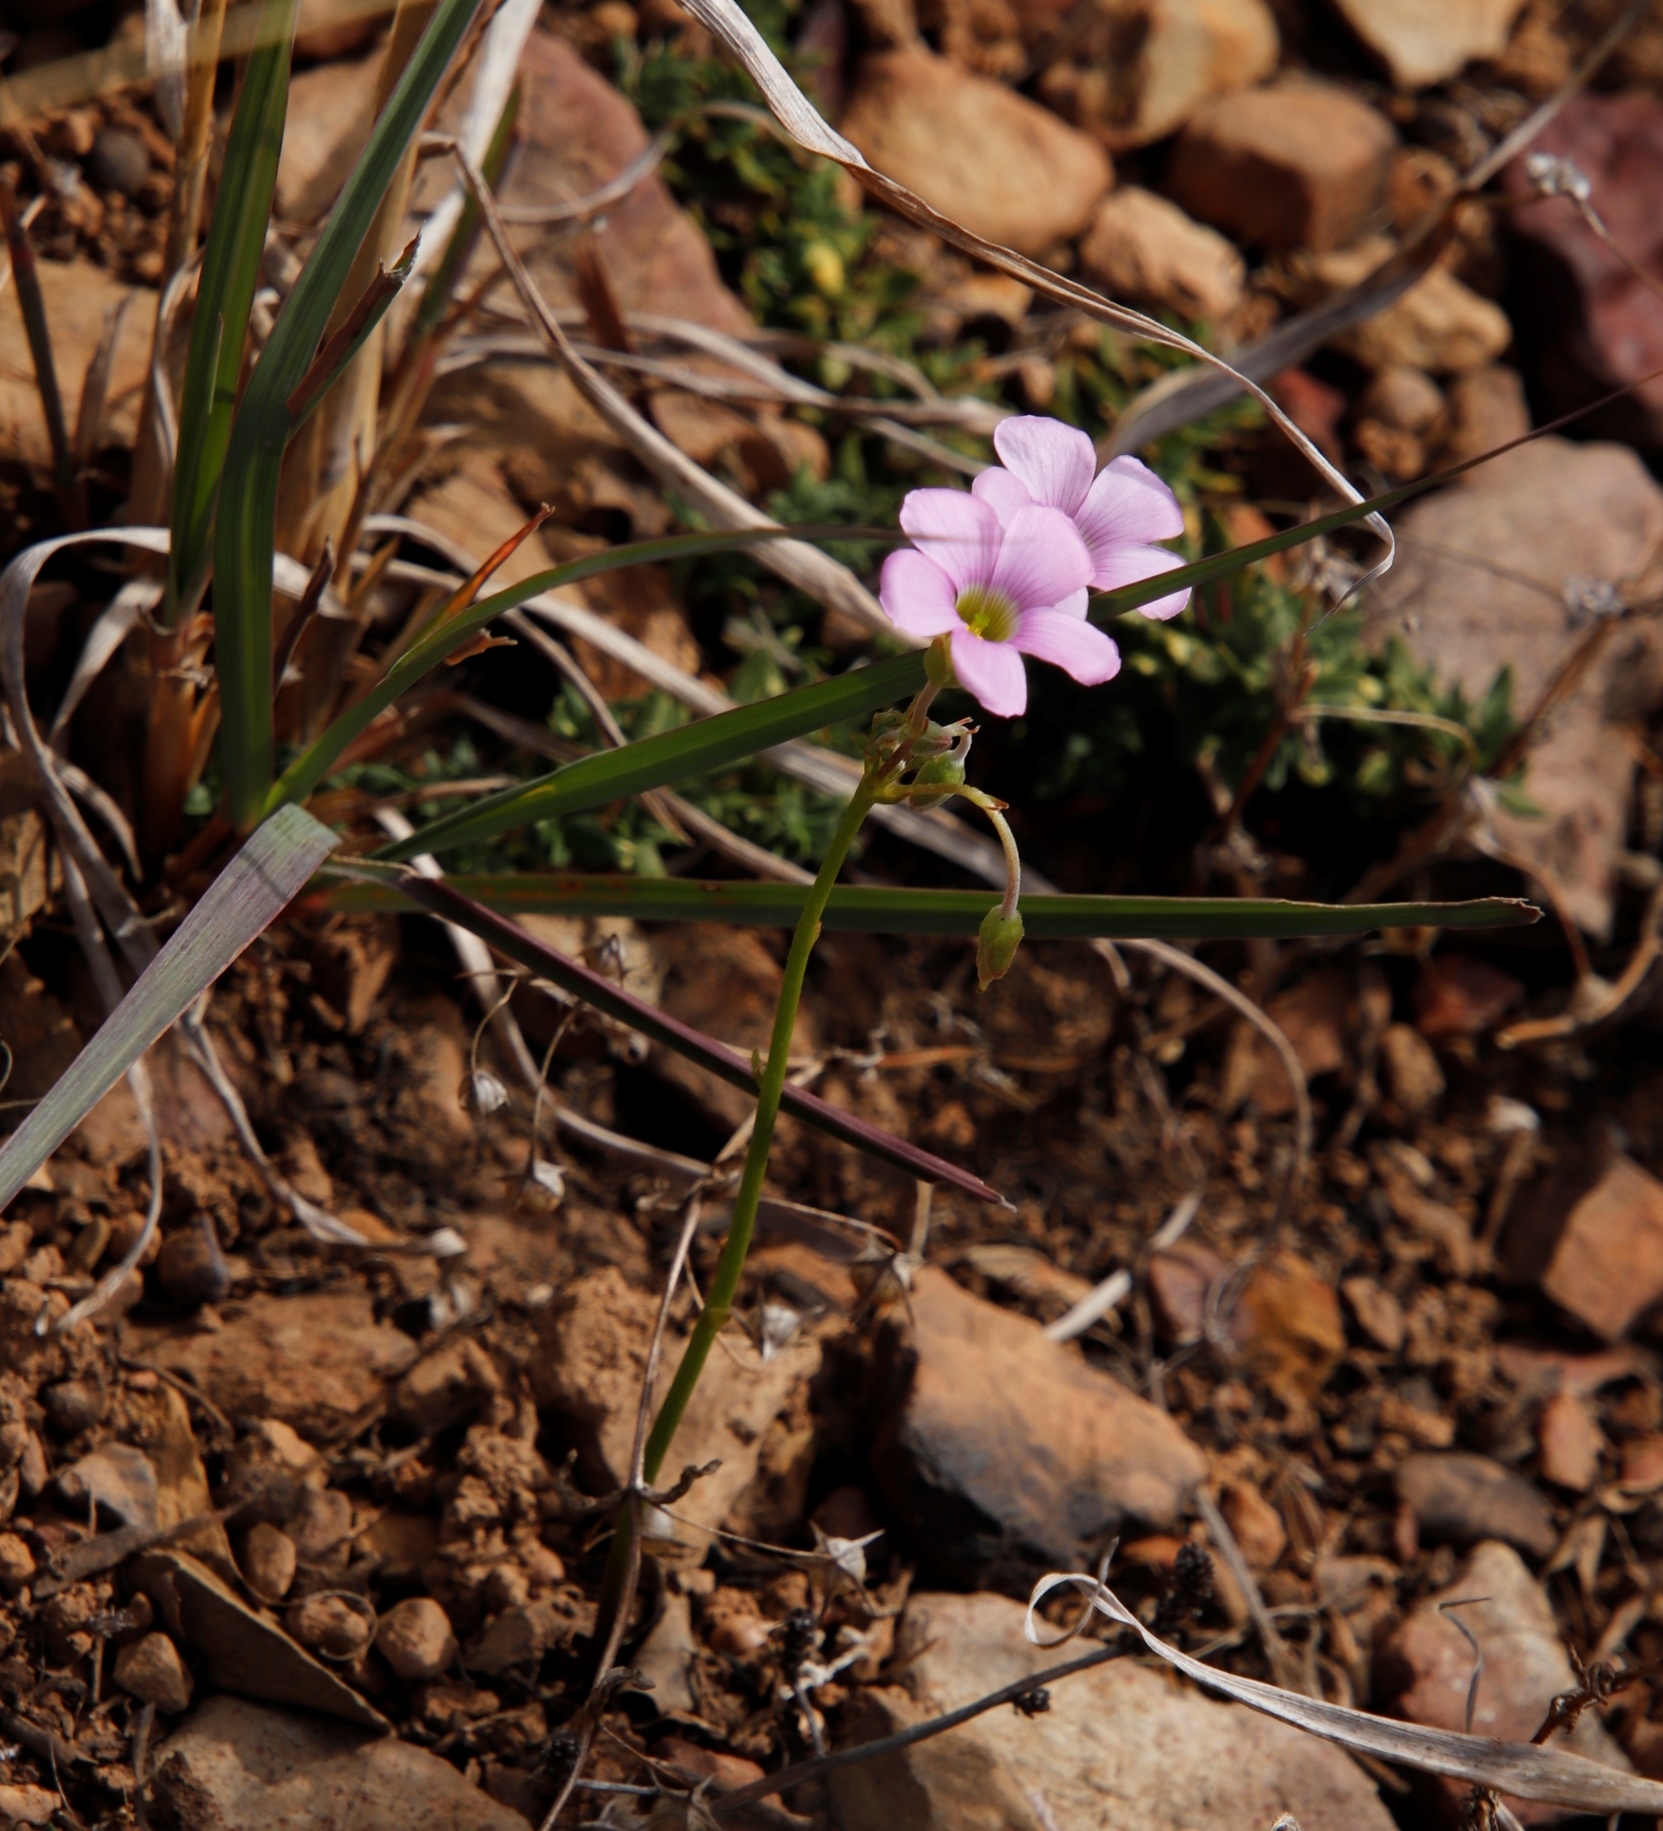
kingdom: Plantae
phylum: Tracheophyta
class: Magnoliopsida
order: Oxalidales
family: Oxalidaceae
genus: Oxalis
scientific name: Oxalis bifida
